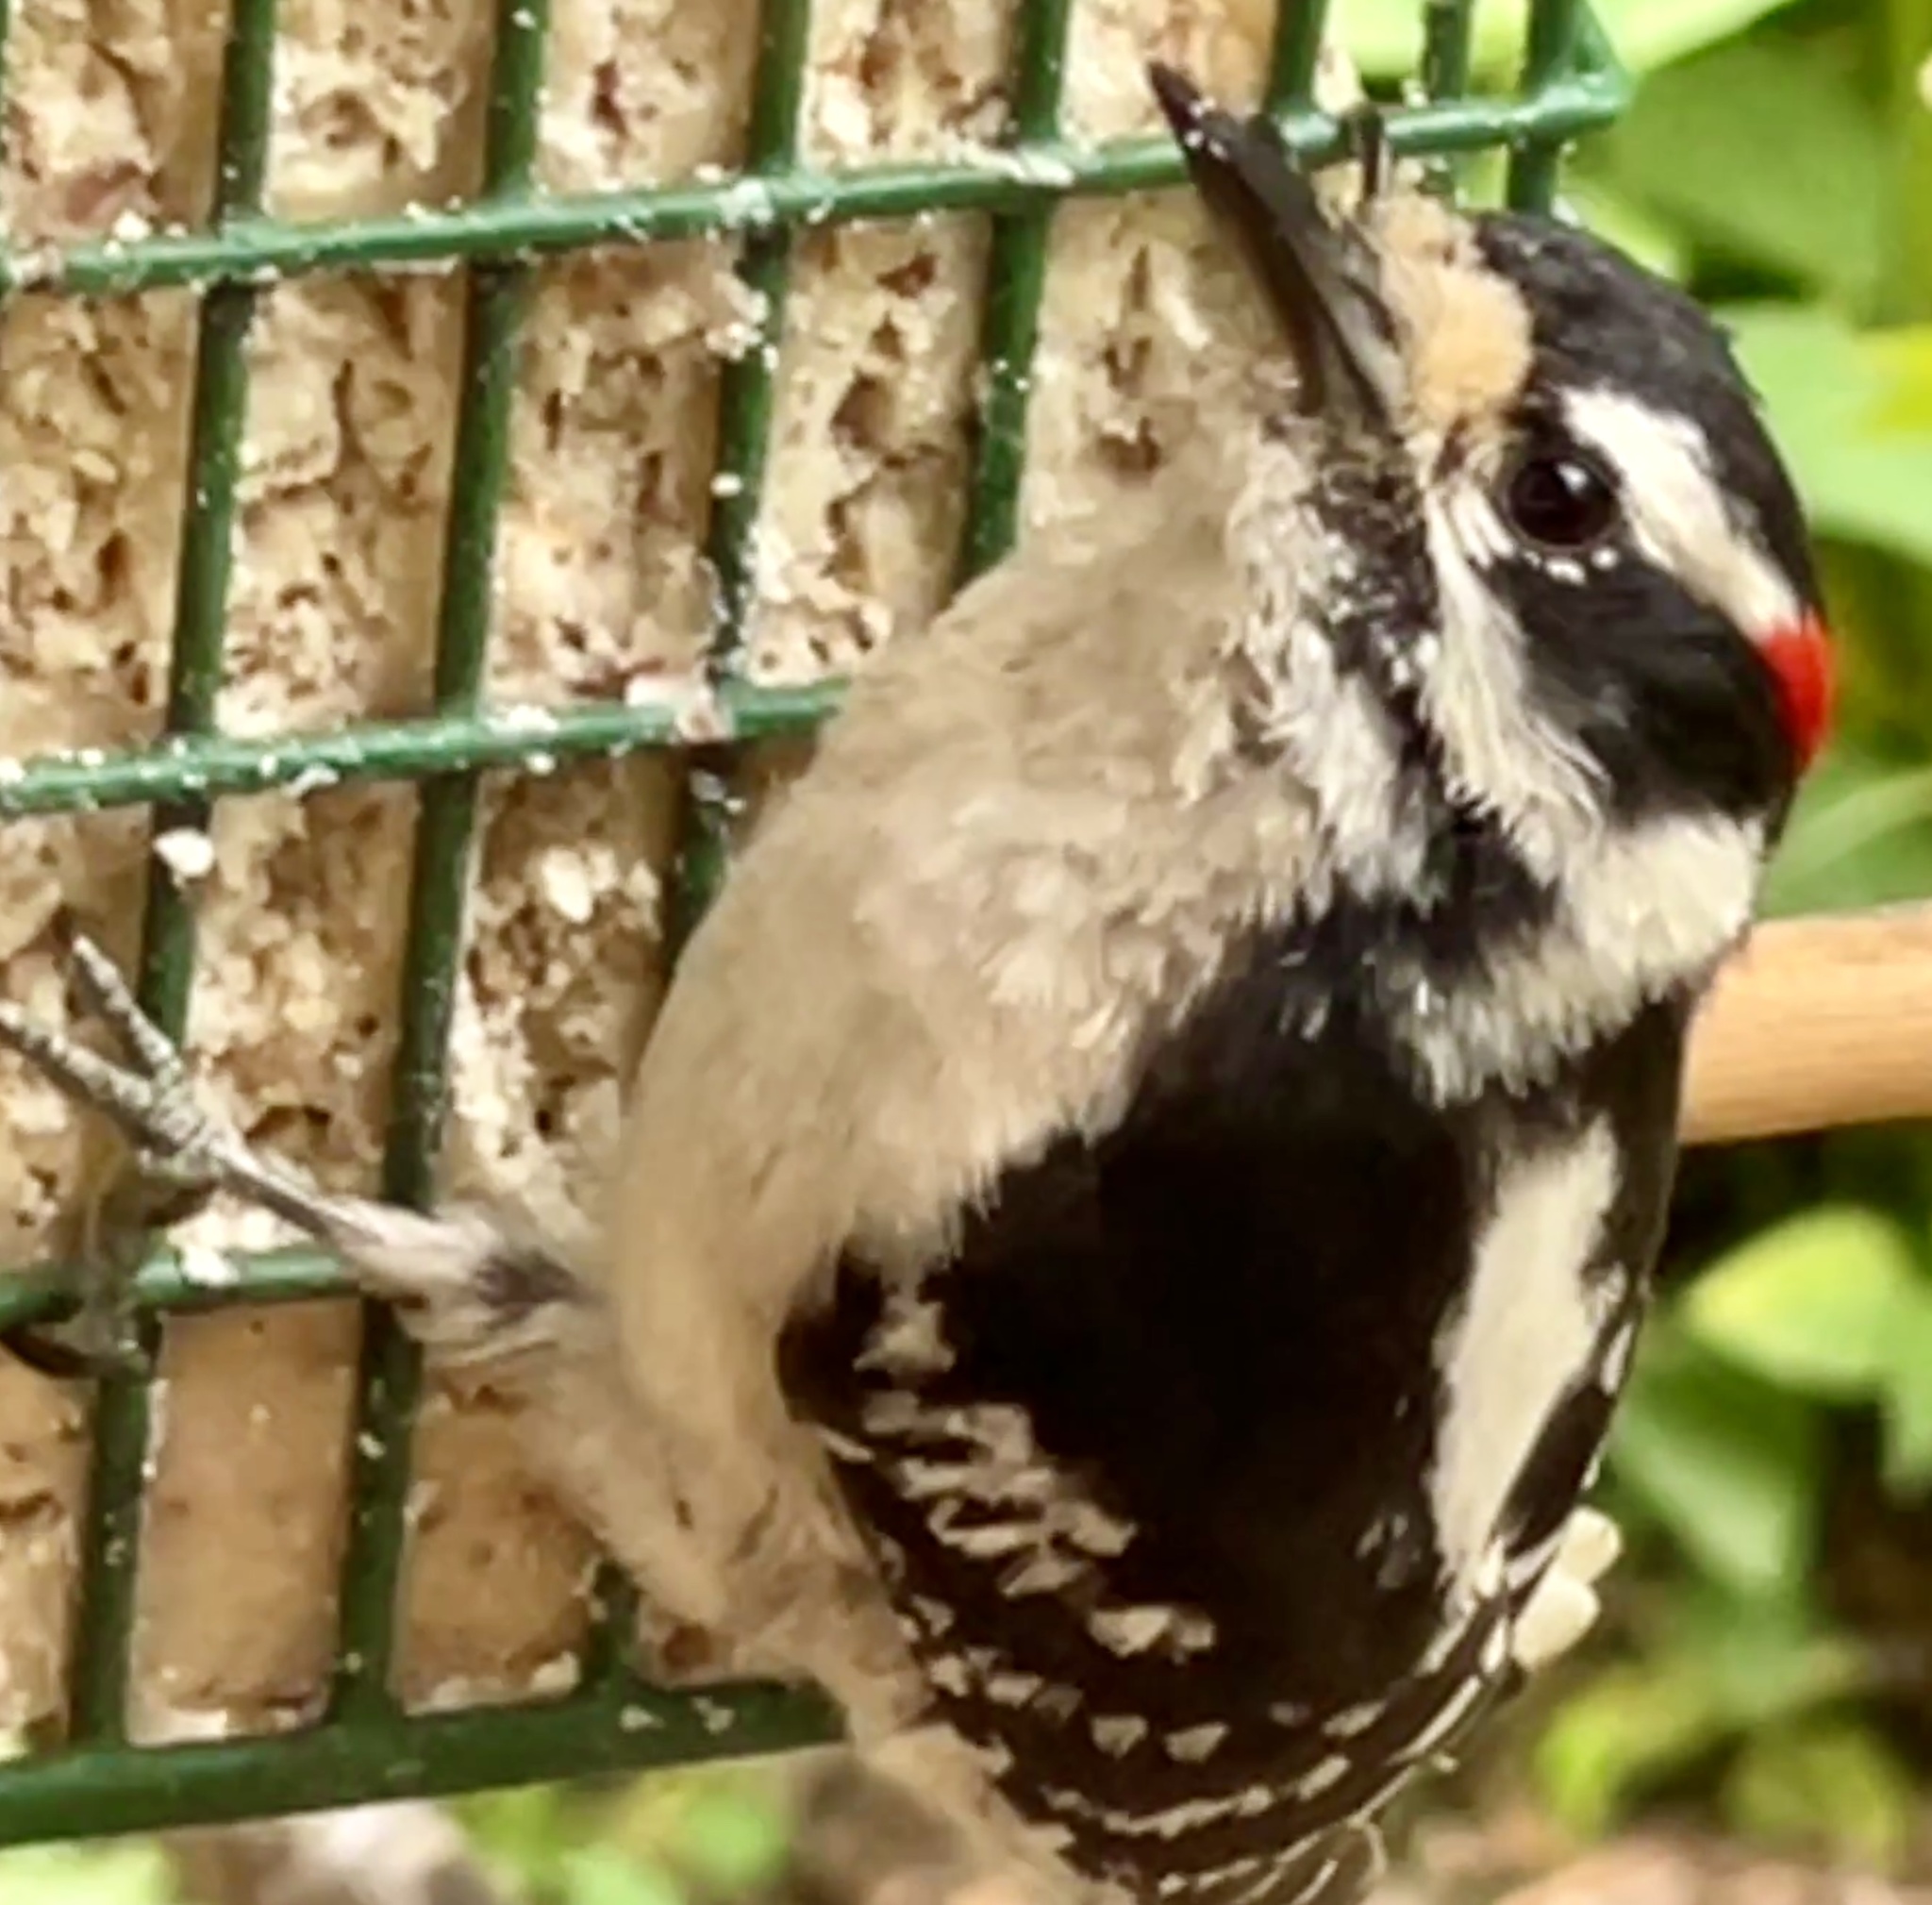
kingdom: Animalia
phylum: Chordata
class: Aves
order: Piciformes
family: Picidae
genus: Dryobates
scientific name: Dryobates pubescens
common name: Downy woodpecker
